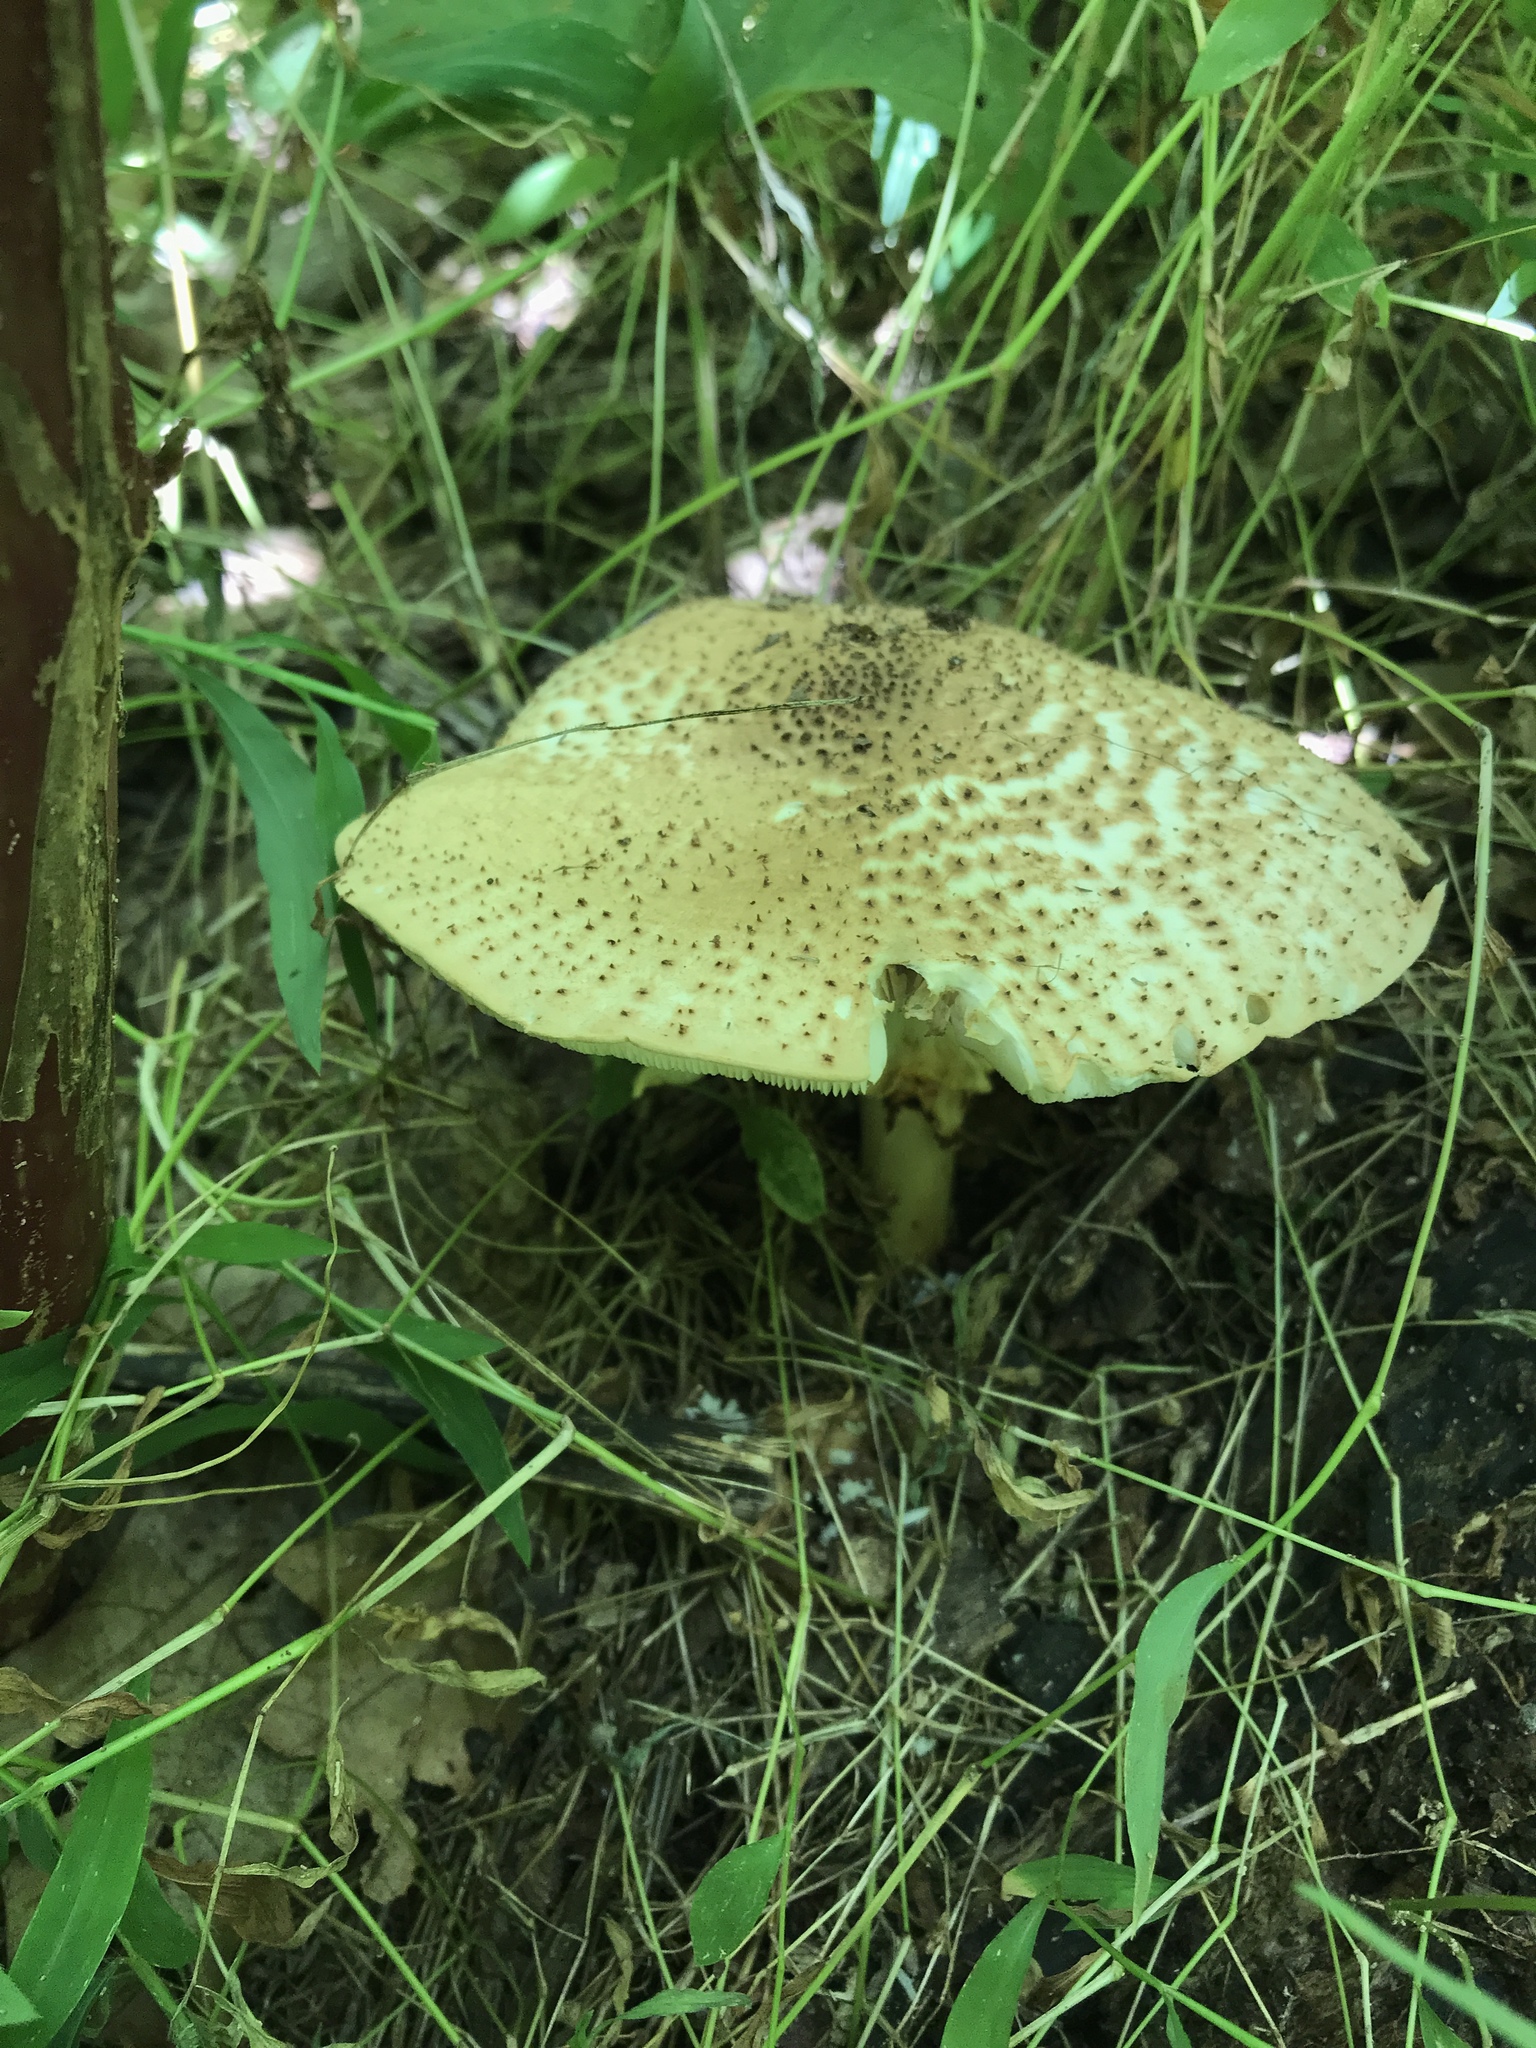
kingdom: Fungi
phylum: Basidiomycota
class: Agaricomycetes
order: Agaricales
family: Agaricaceae
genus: Echinoderma
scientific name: Echinoderma asperum
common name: Freckled dapperling
